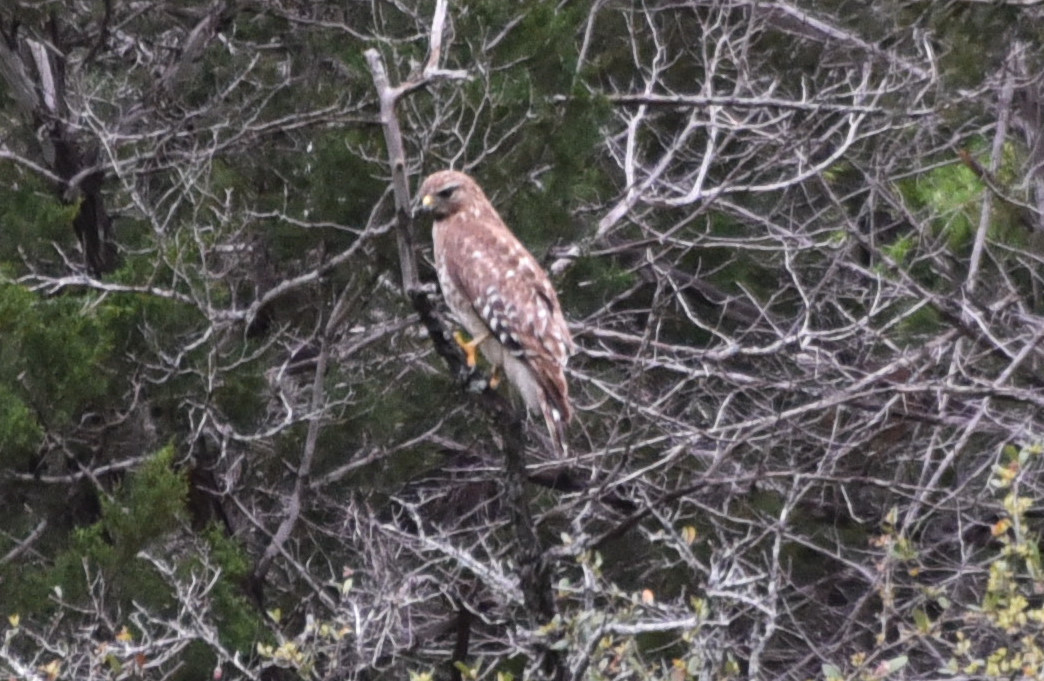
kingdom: Animalia
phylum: Chordata
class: Aves
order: Accipitriformes
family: Accipitridae
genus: Buteo
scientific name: Buteo lineatus
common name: Red-shouldered hawk
